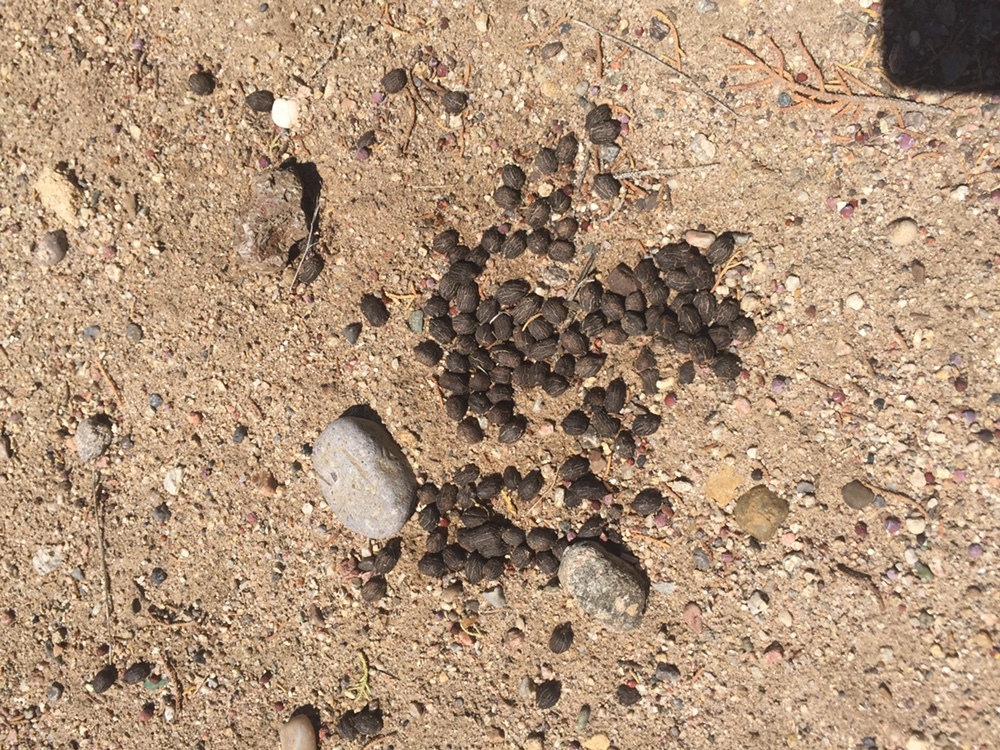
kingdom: Animalia
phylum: Chordata
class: Mammalia
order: Artiodactyla
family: Cervidae
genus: Odocoileus
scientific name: Odocoileus hemionus
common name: Mule deer
